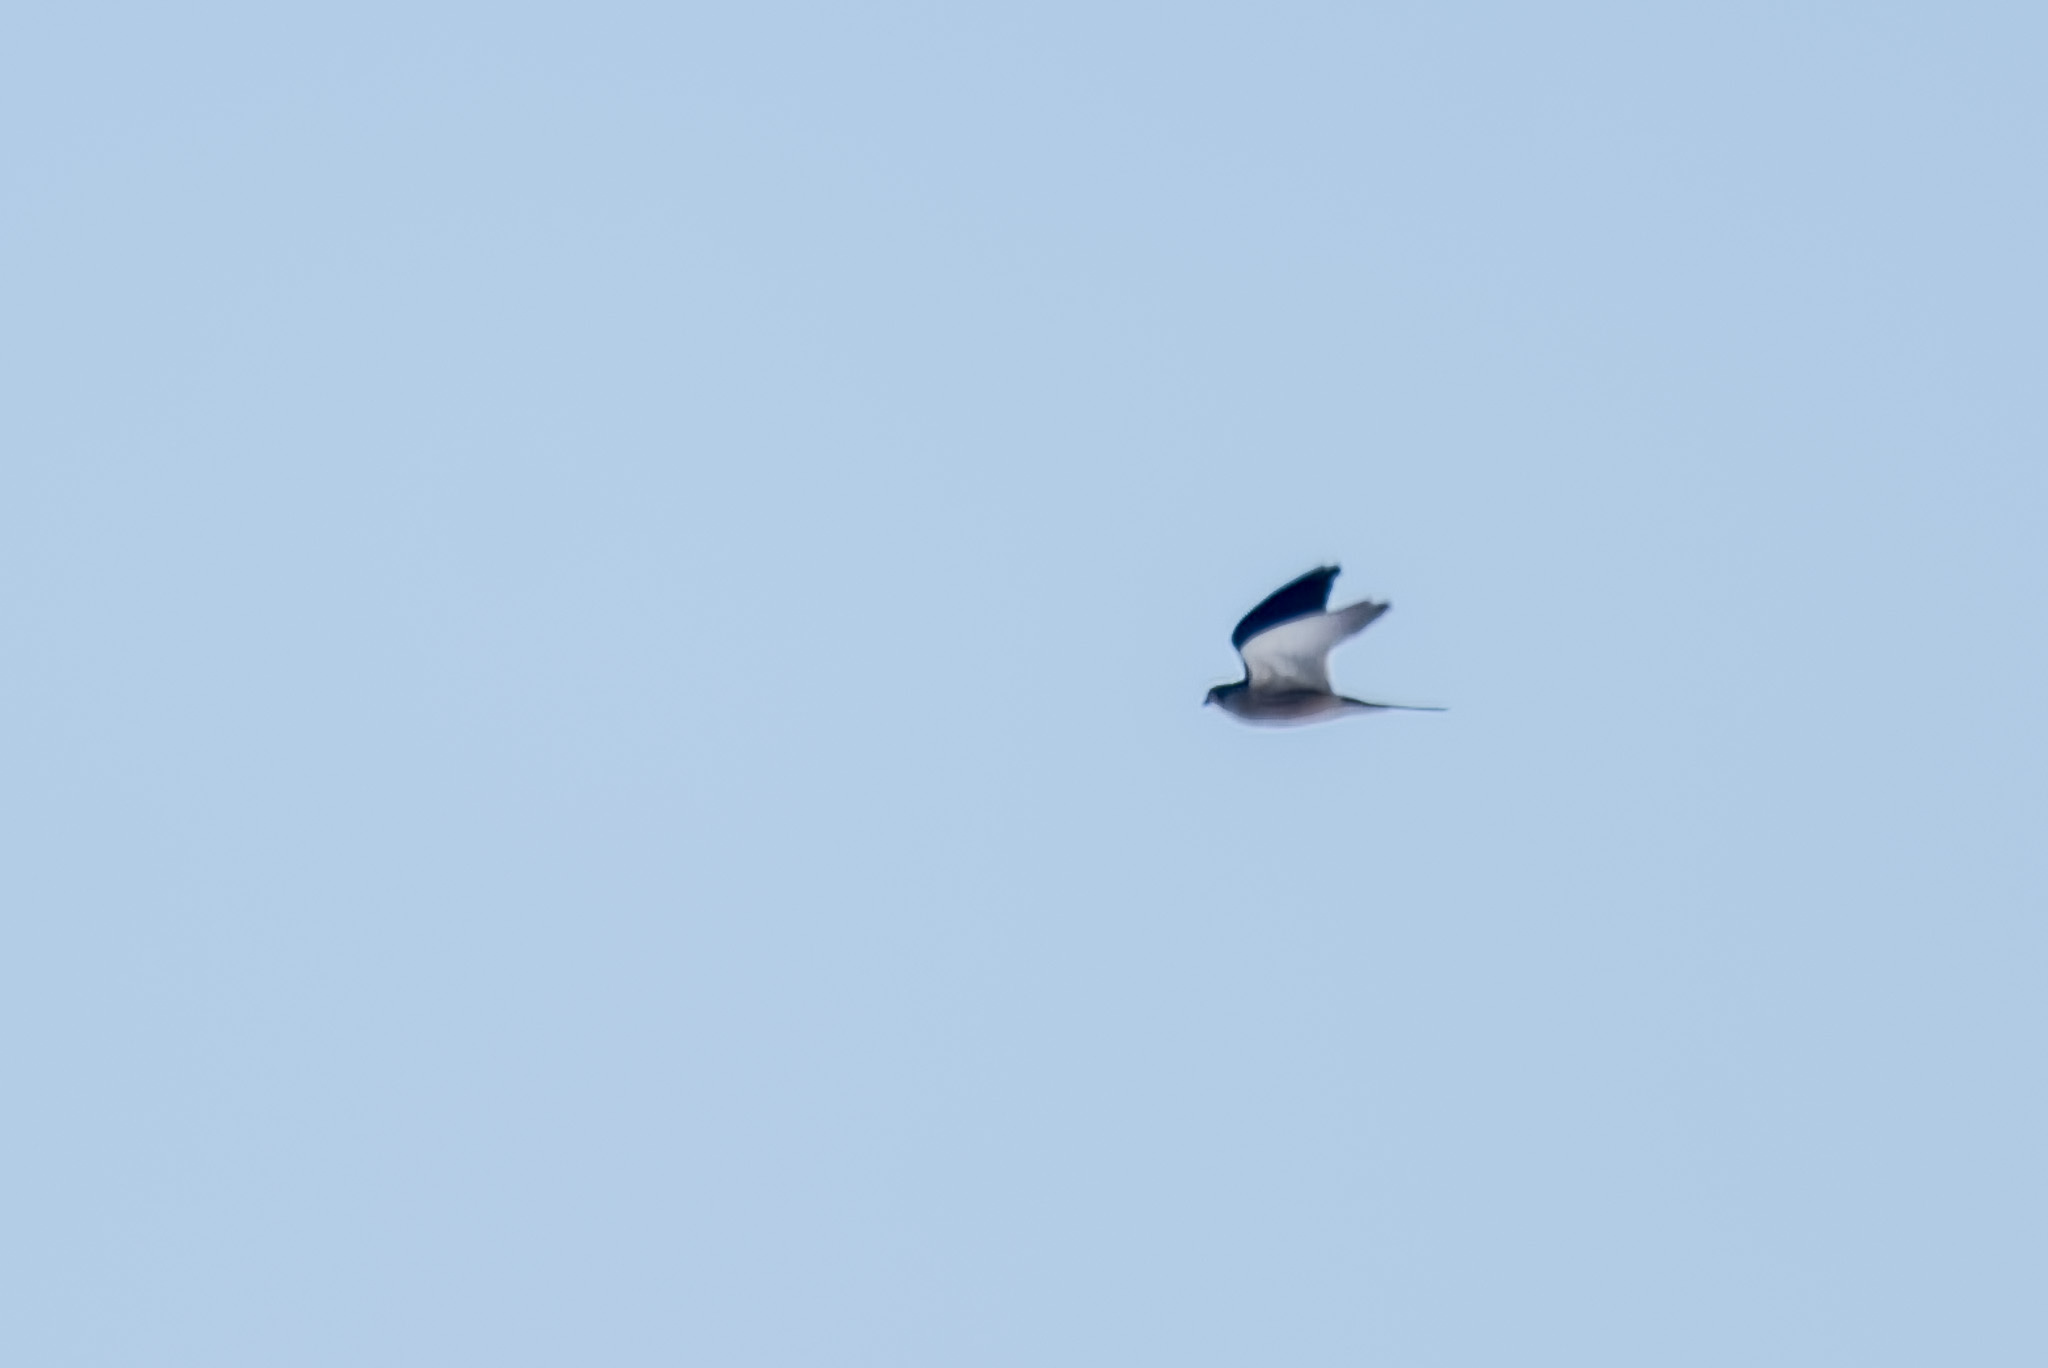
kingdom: Animalia
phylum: Chordata
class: Aves
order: Falconiformes
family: Falconidae
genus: Falco
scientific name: Falco tinnunculus
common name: Common kestrel
